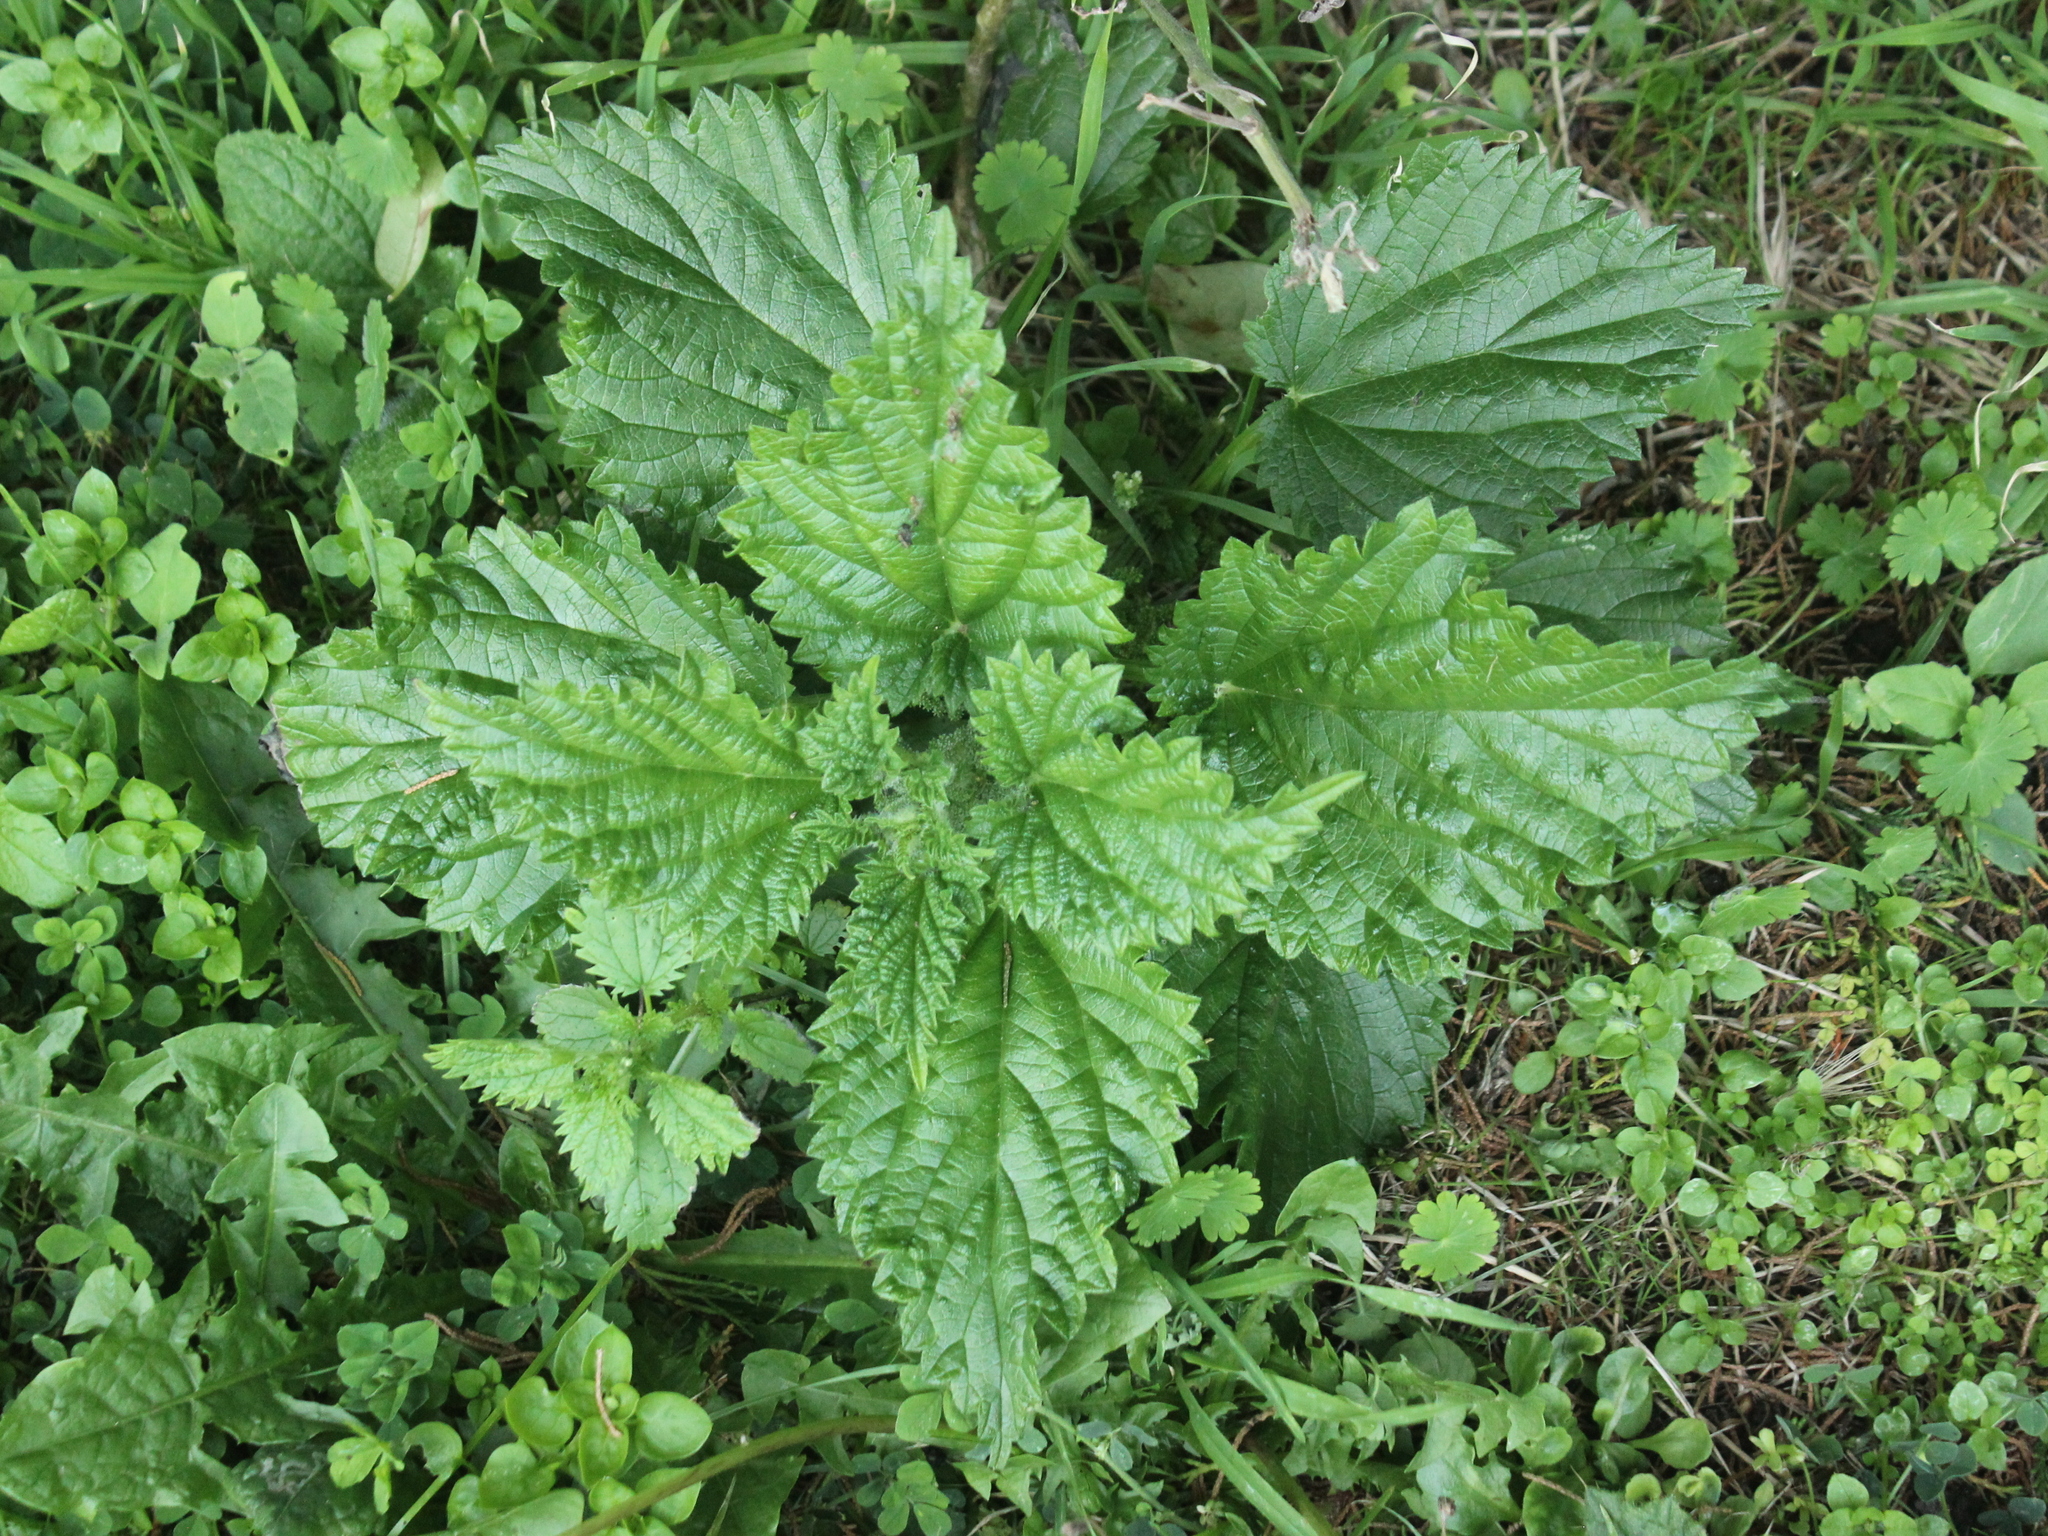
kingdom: Plantae
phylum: Tracheophyta
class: Magnoliopsida
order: Rosales
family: Urticaceae
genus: Urtica
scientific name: Urtica australis
